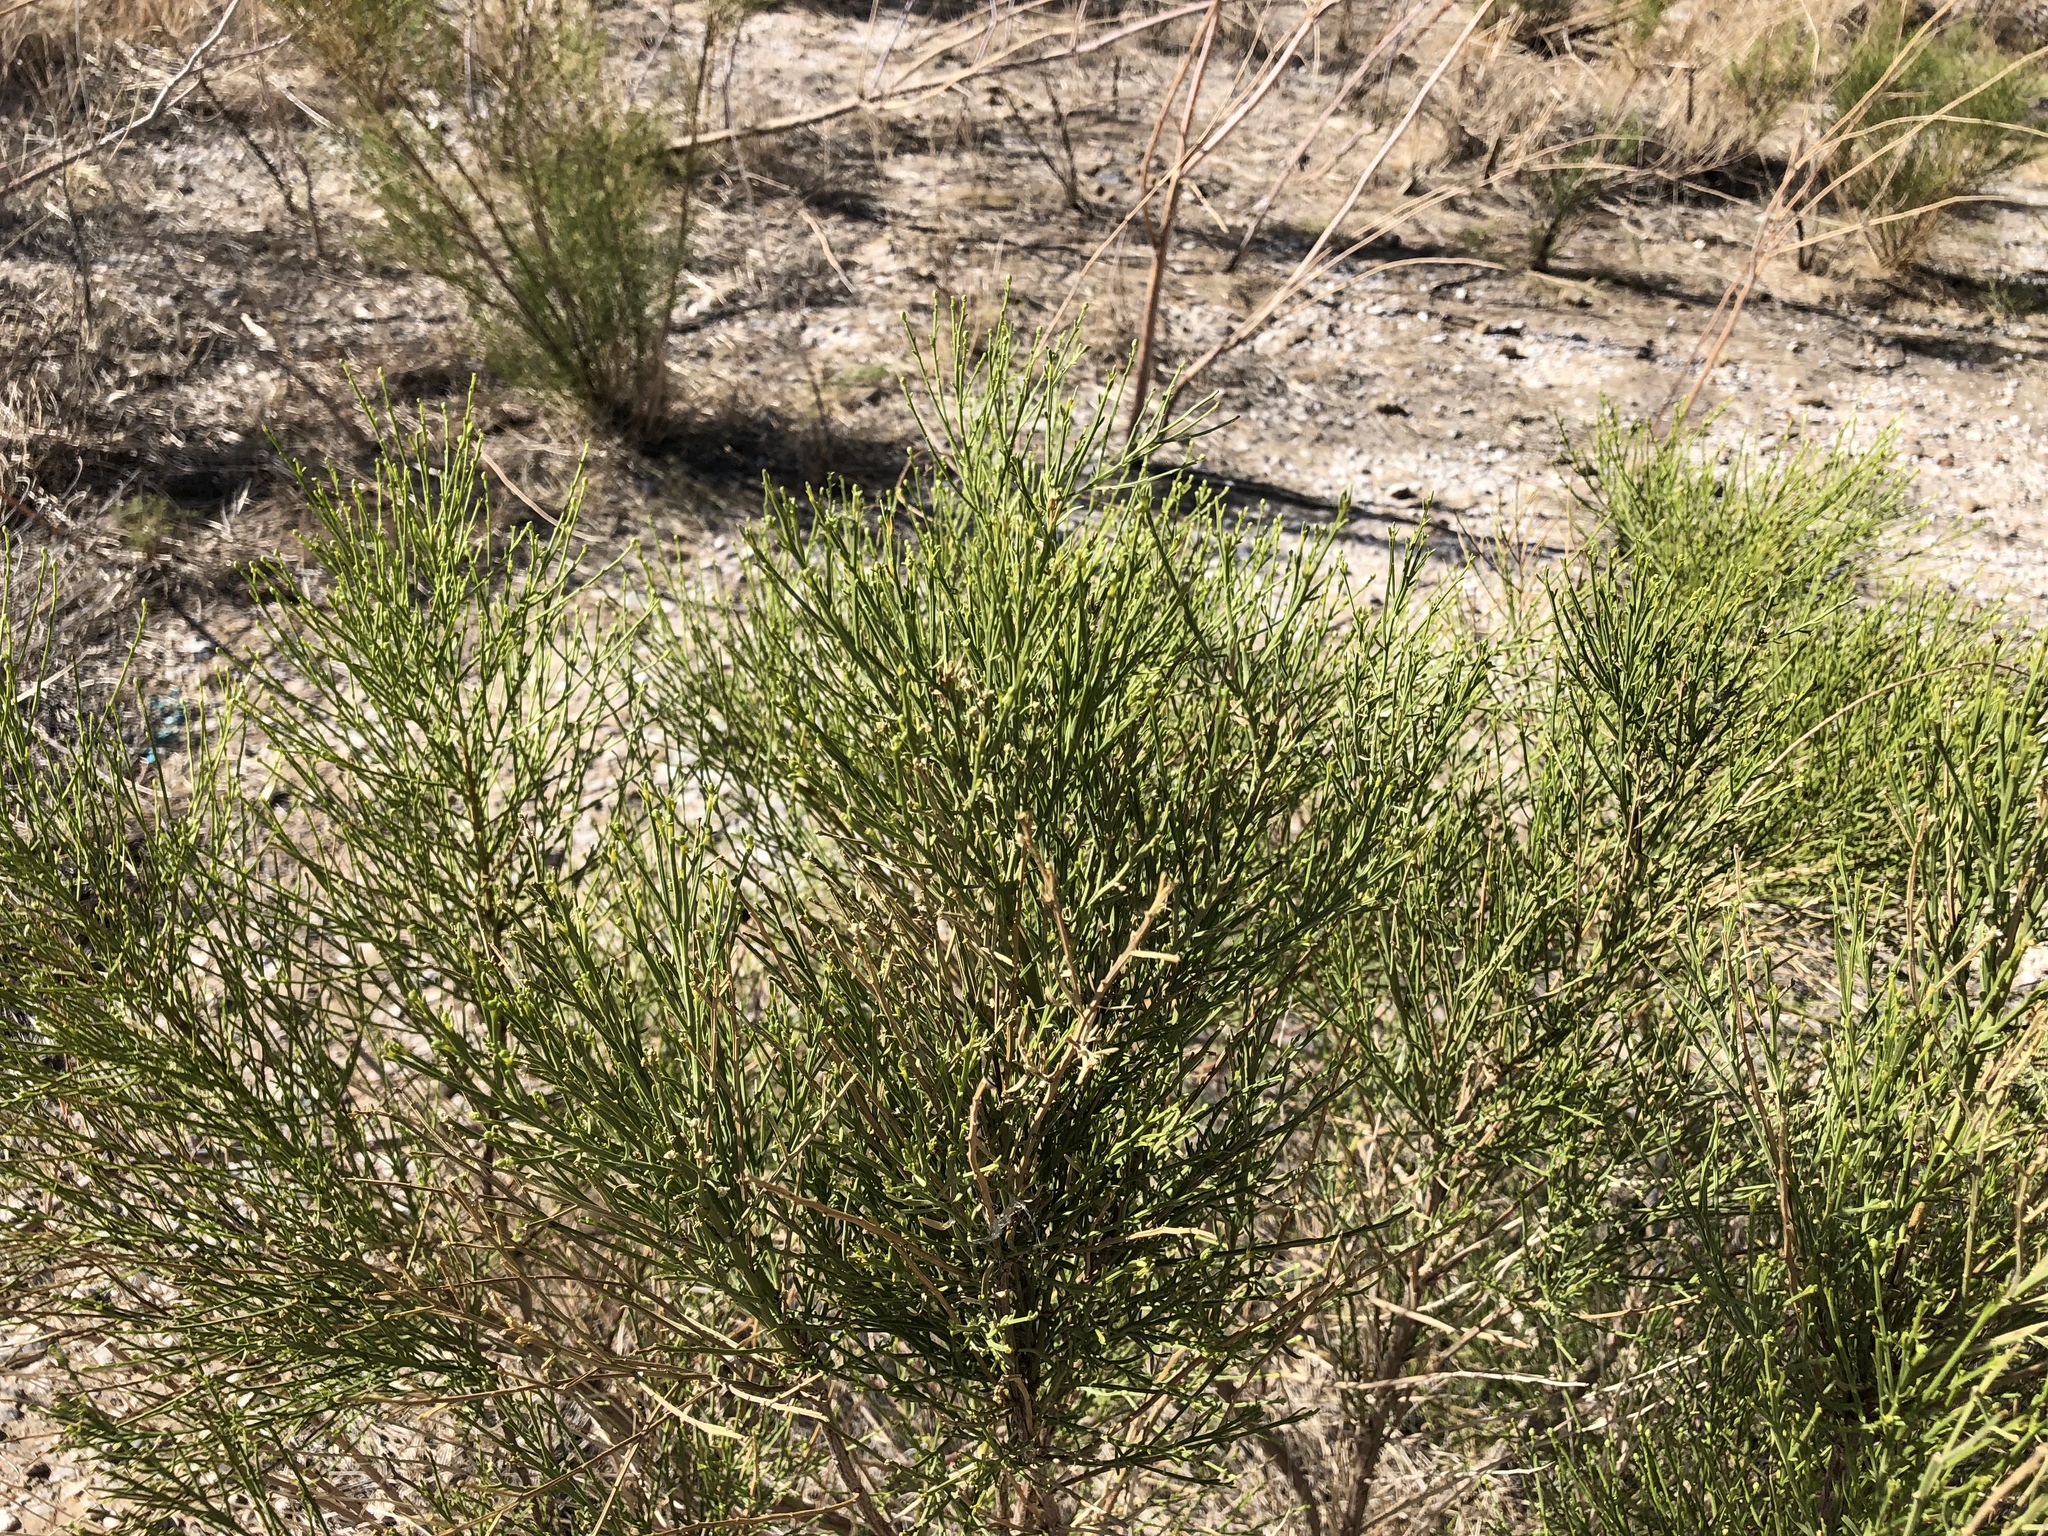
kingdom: Plantae
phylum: Tracheophyta
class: Magnoliopsida
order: Asterales
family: Asteraceae
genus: Baccharis
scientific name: Baccharis sarothroides
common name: Desert-broom
